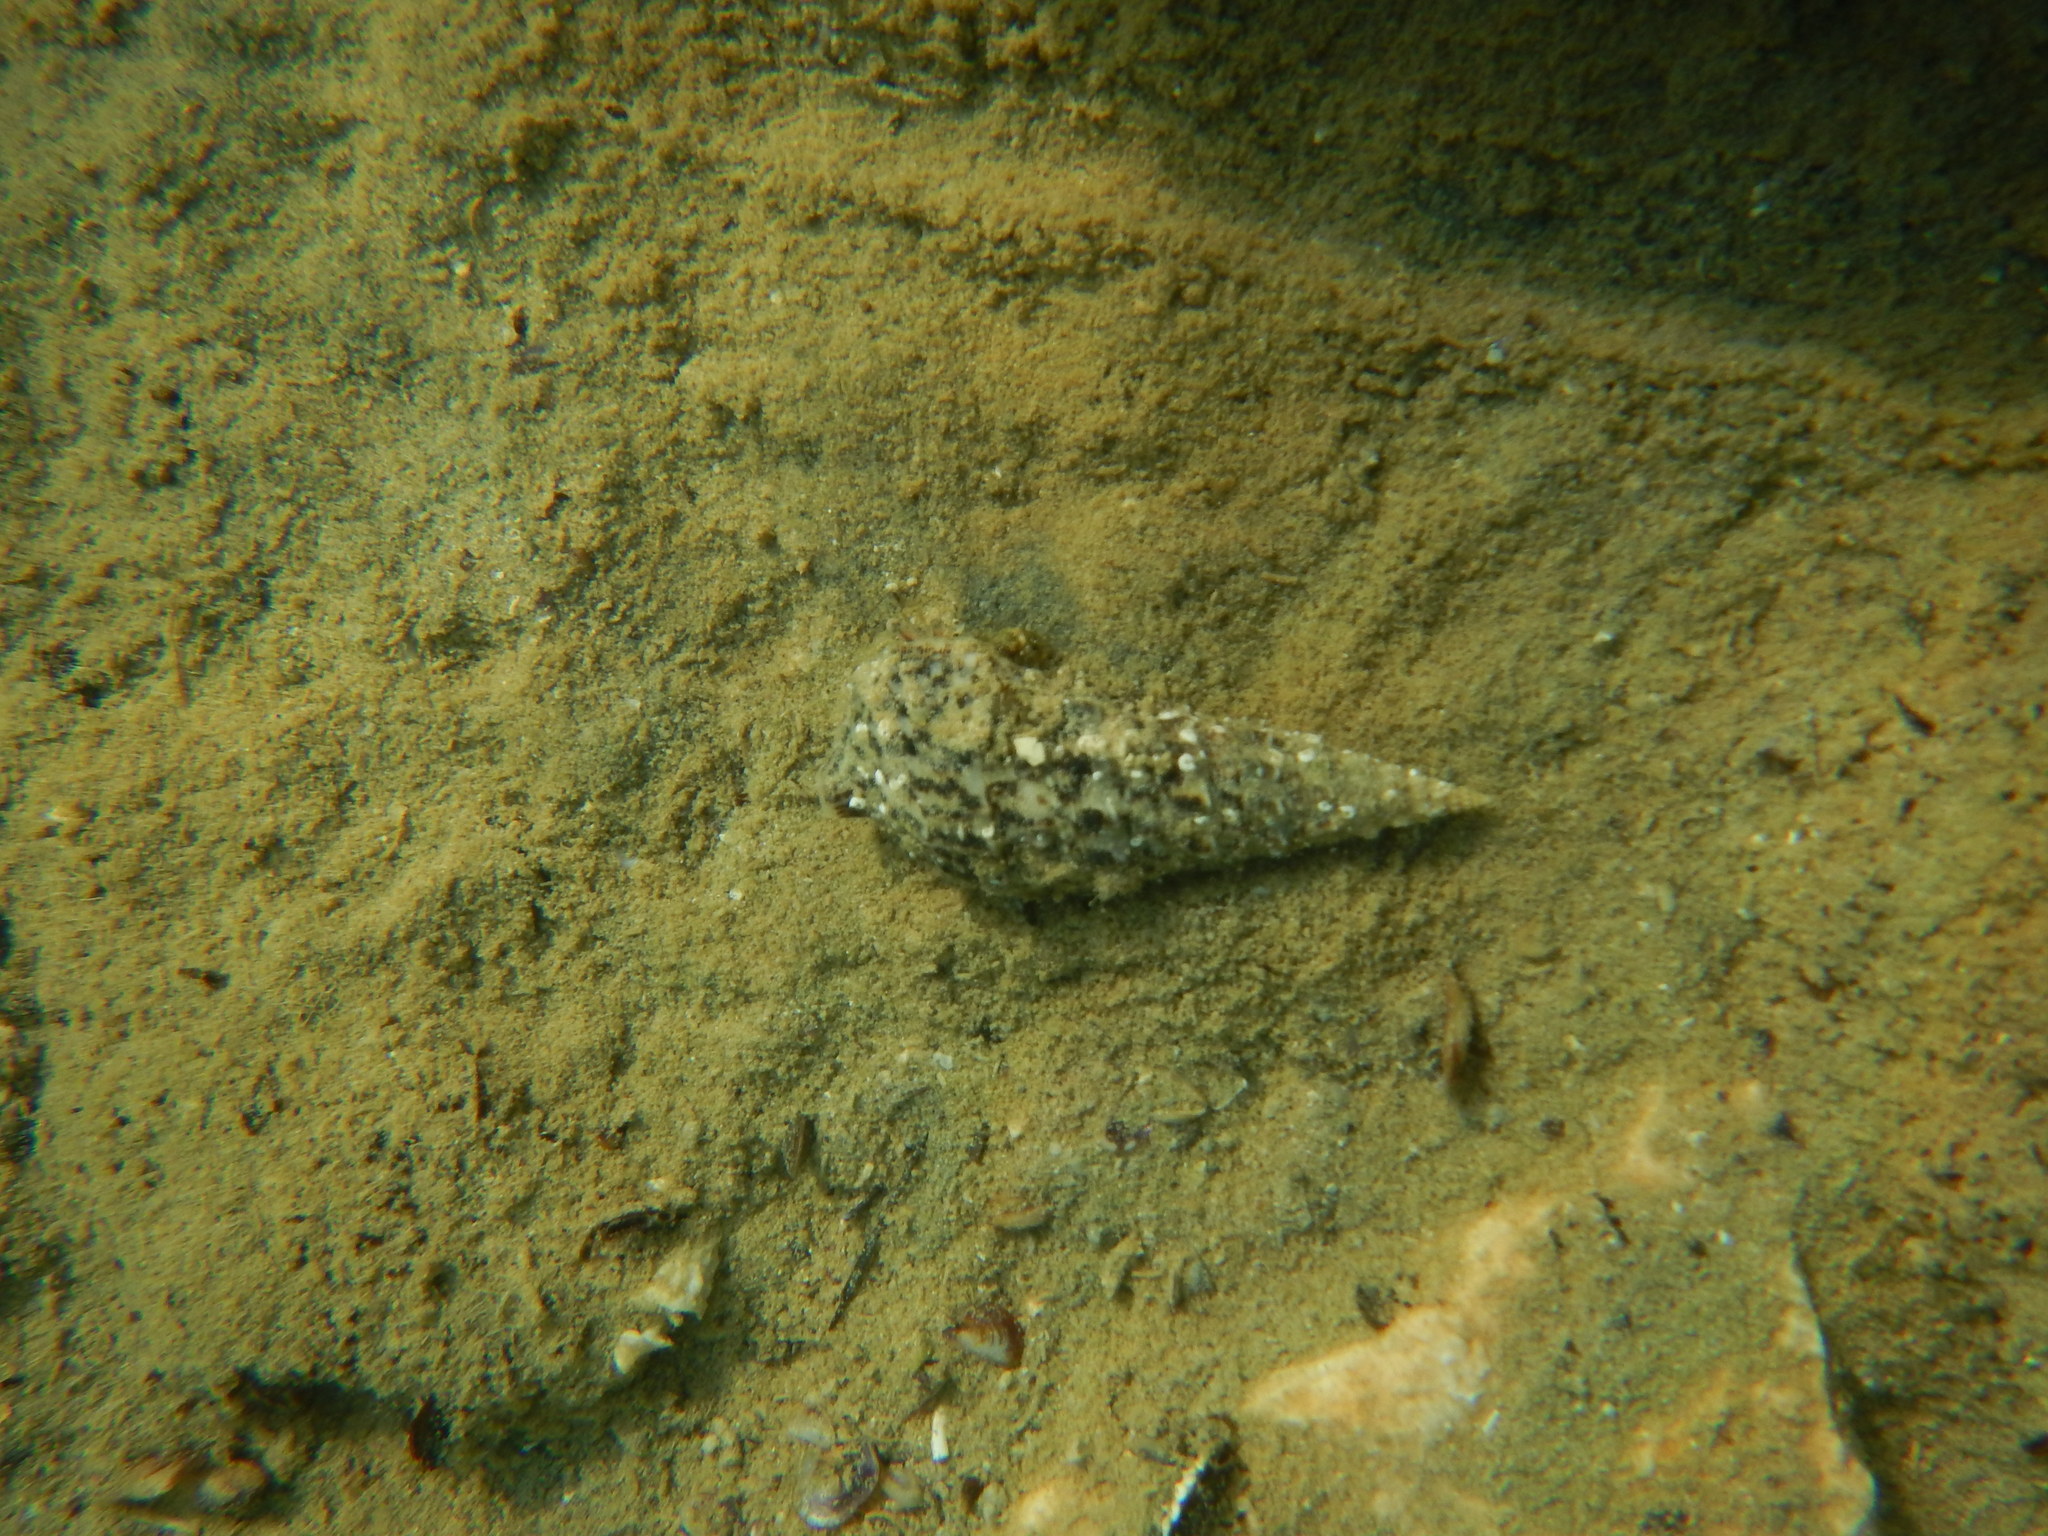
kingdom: Animalia
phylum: Mollusca
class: Gastropoda
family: Cerithiidae
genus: Cerithium
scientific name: Cerithium vulgatum
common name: European cerith
